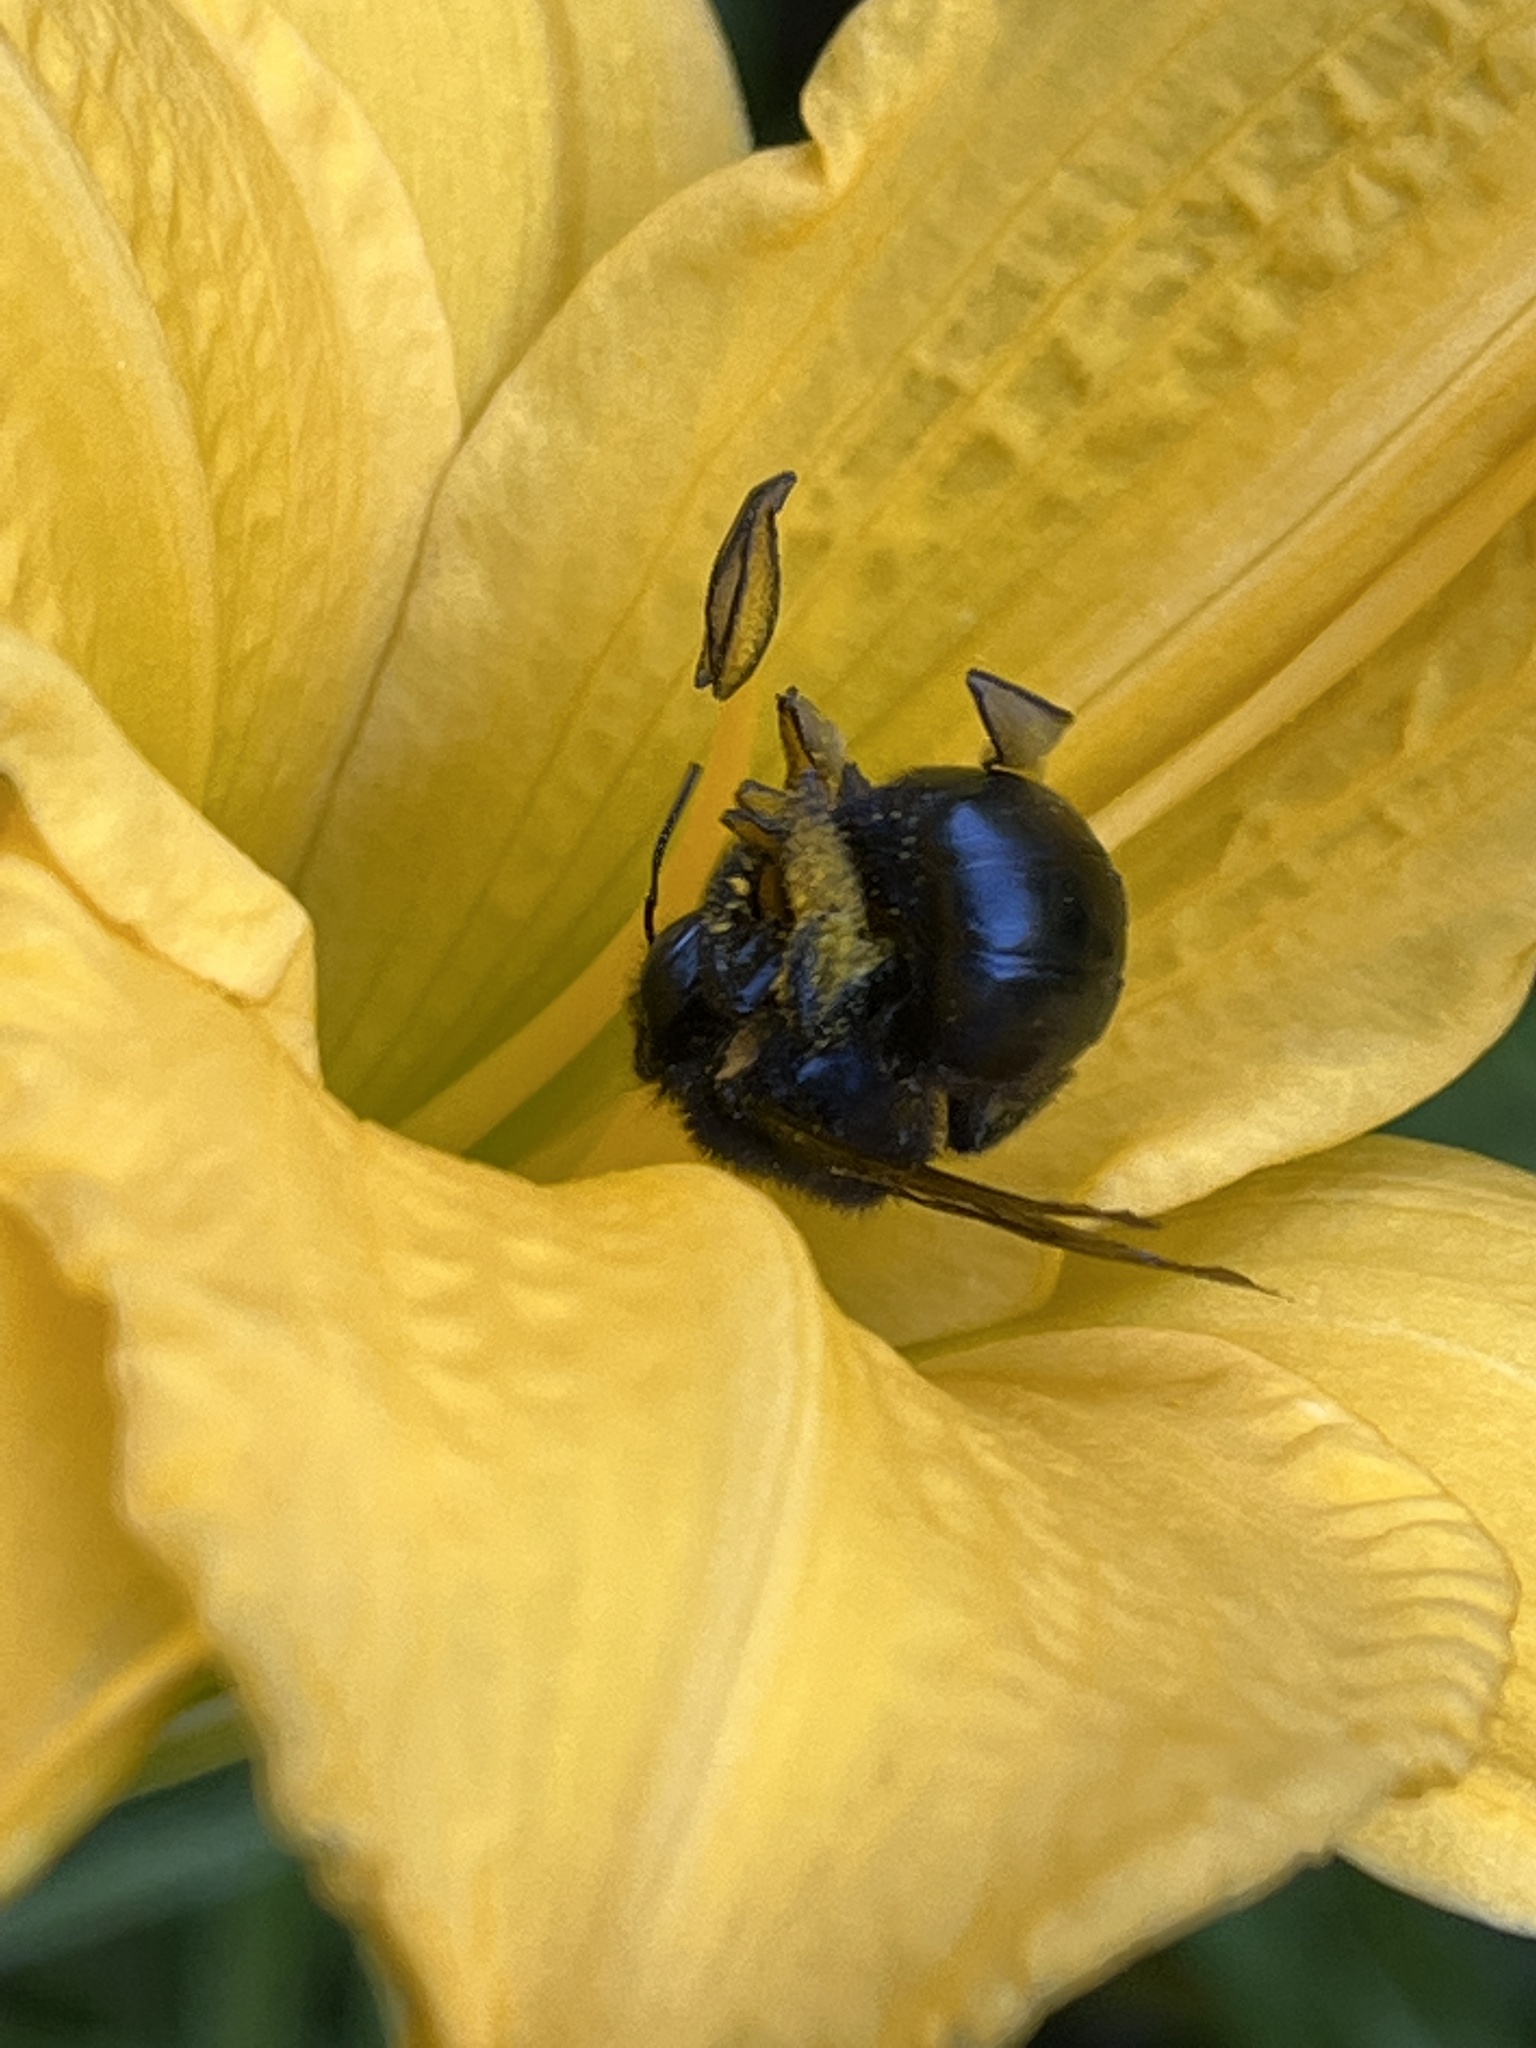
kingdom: Animalia
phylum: Arthropoda
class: Insecta
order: Hymenoptera
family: Apidae
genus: Xylocopa
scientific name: Xylocopa tabaniformis
